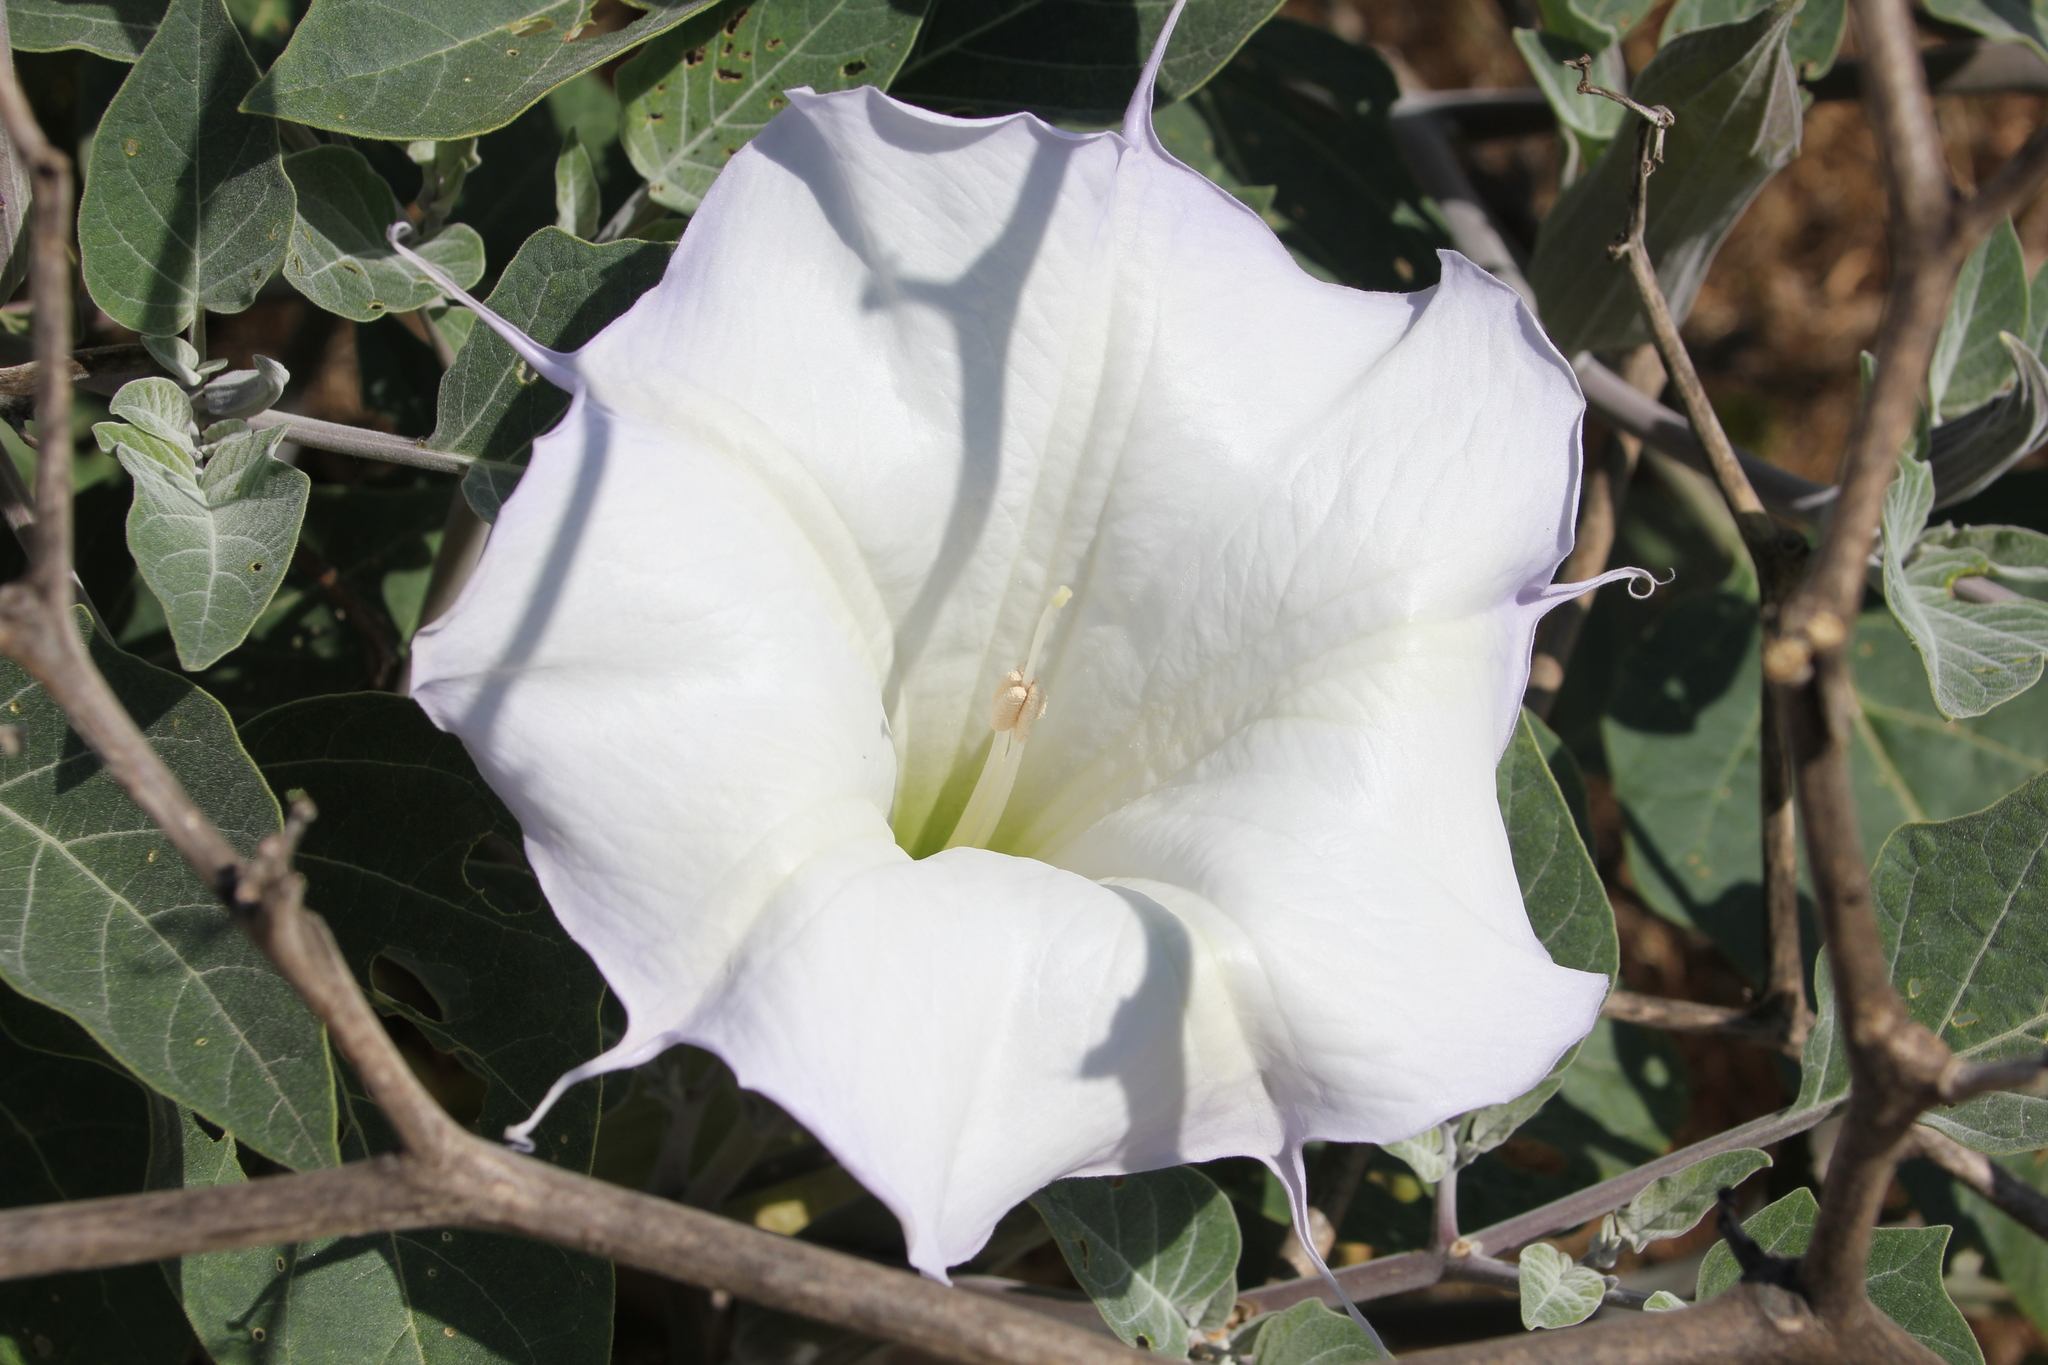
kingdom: Plantae
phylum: Tracheophyta
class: Magnoliopsida
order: Solanales
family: Solanaceae
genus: Datura
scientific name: Datura wrightii
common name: Sacred thorn-apple
